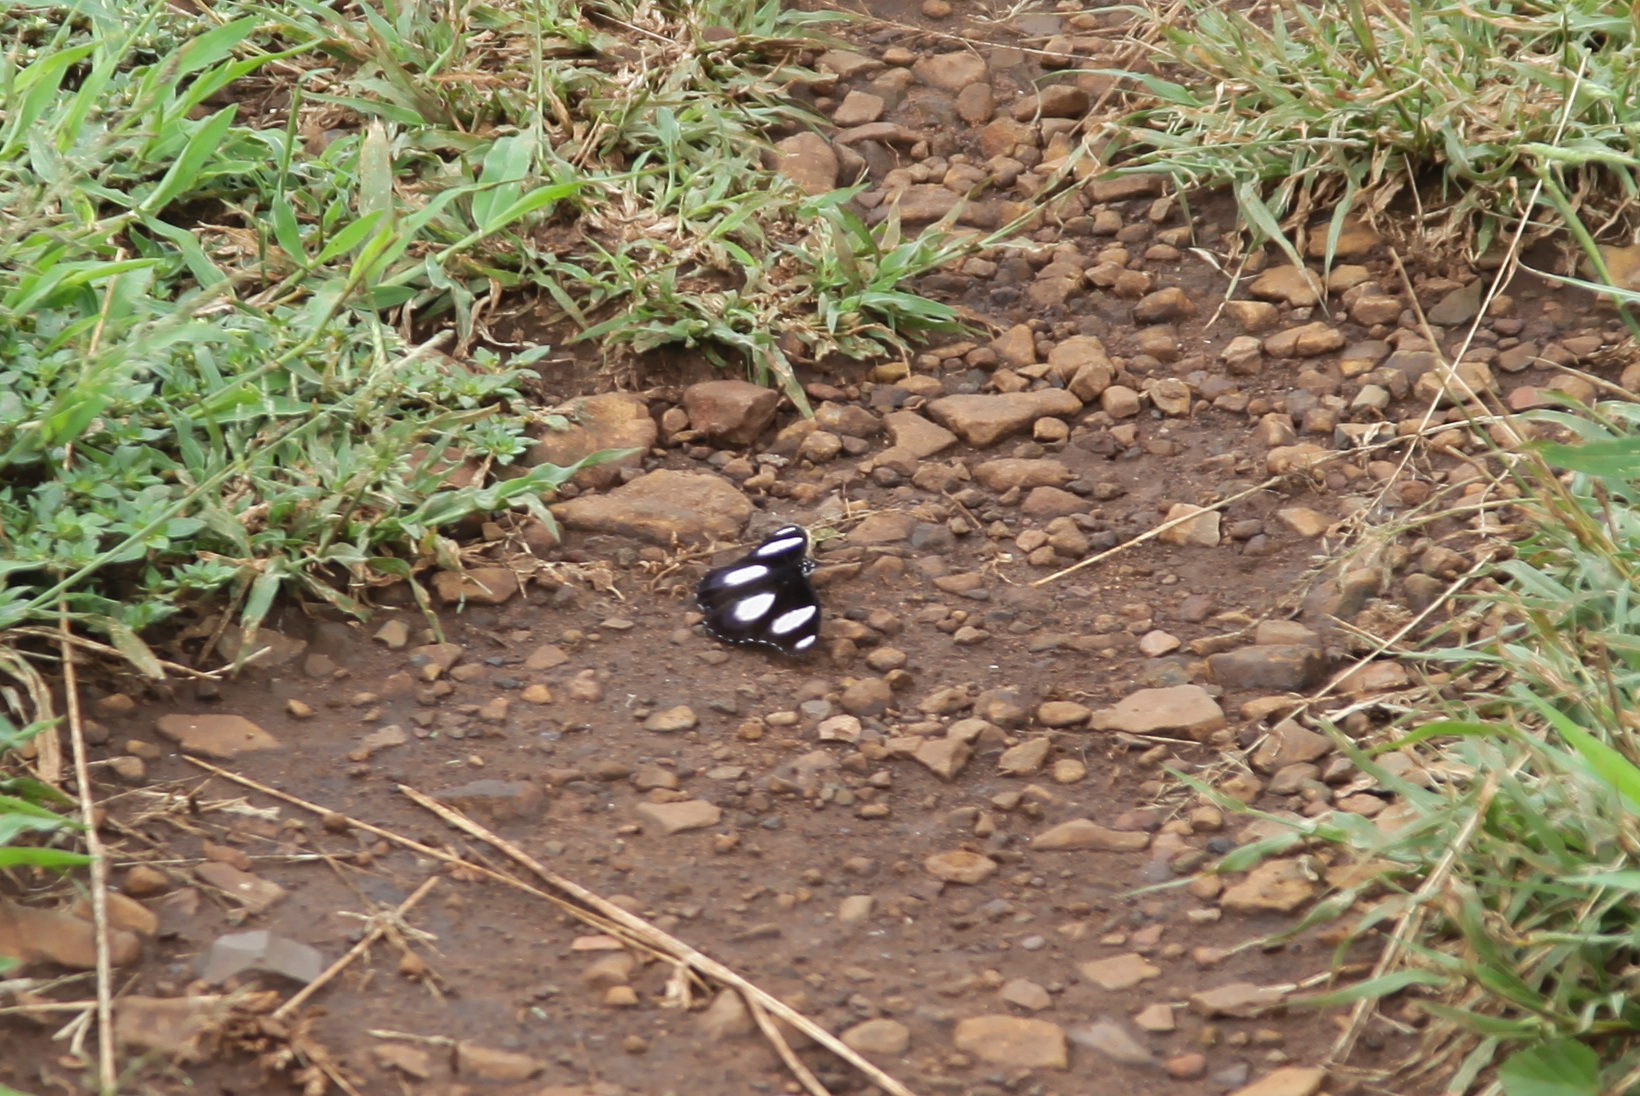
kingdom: Animalia
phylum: Arthropoda
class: Insecta
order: Lepidoptera
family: Nymphalidae
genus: Hypolimnas
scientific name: Hypolimnas misippus
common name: False plain tiger
